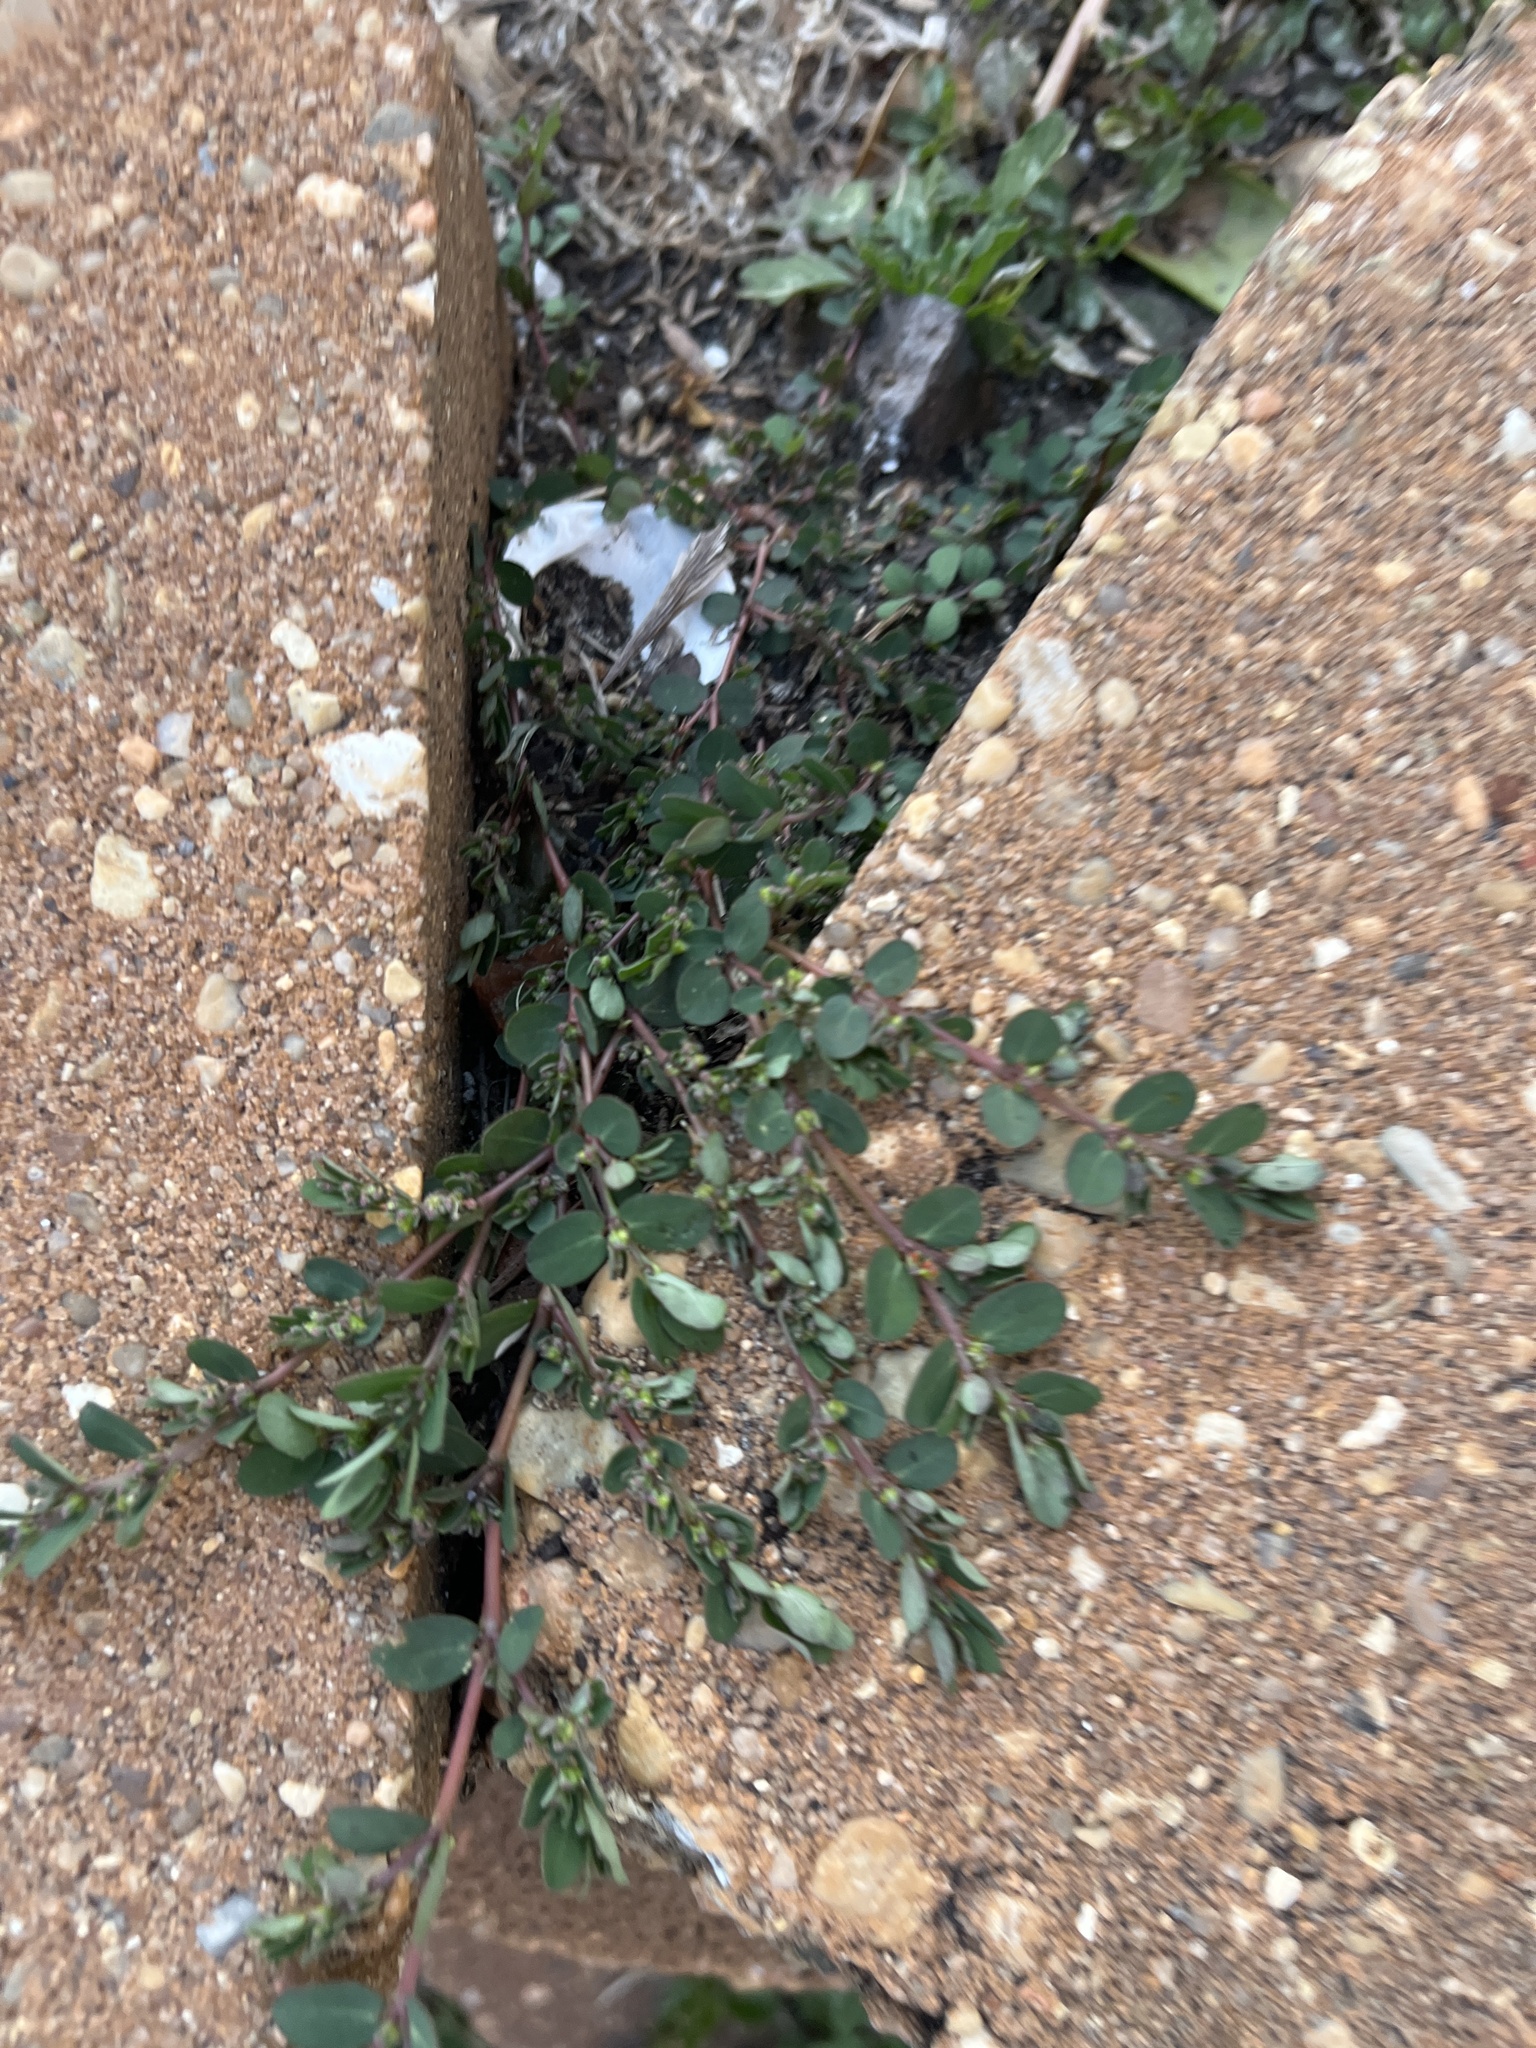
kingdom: Plantae
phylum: Tracheophyta
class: Magnoliopsida
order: Malpighiales
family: Euphorbiaceae
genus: Euphorbia
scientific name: Euphorbia prostrata
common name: Prostrate sandmat
